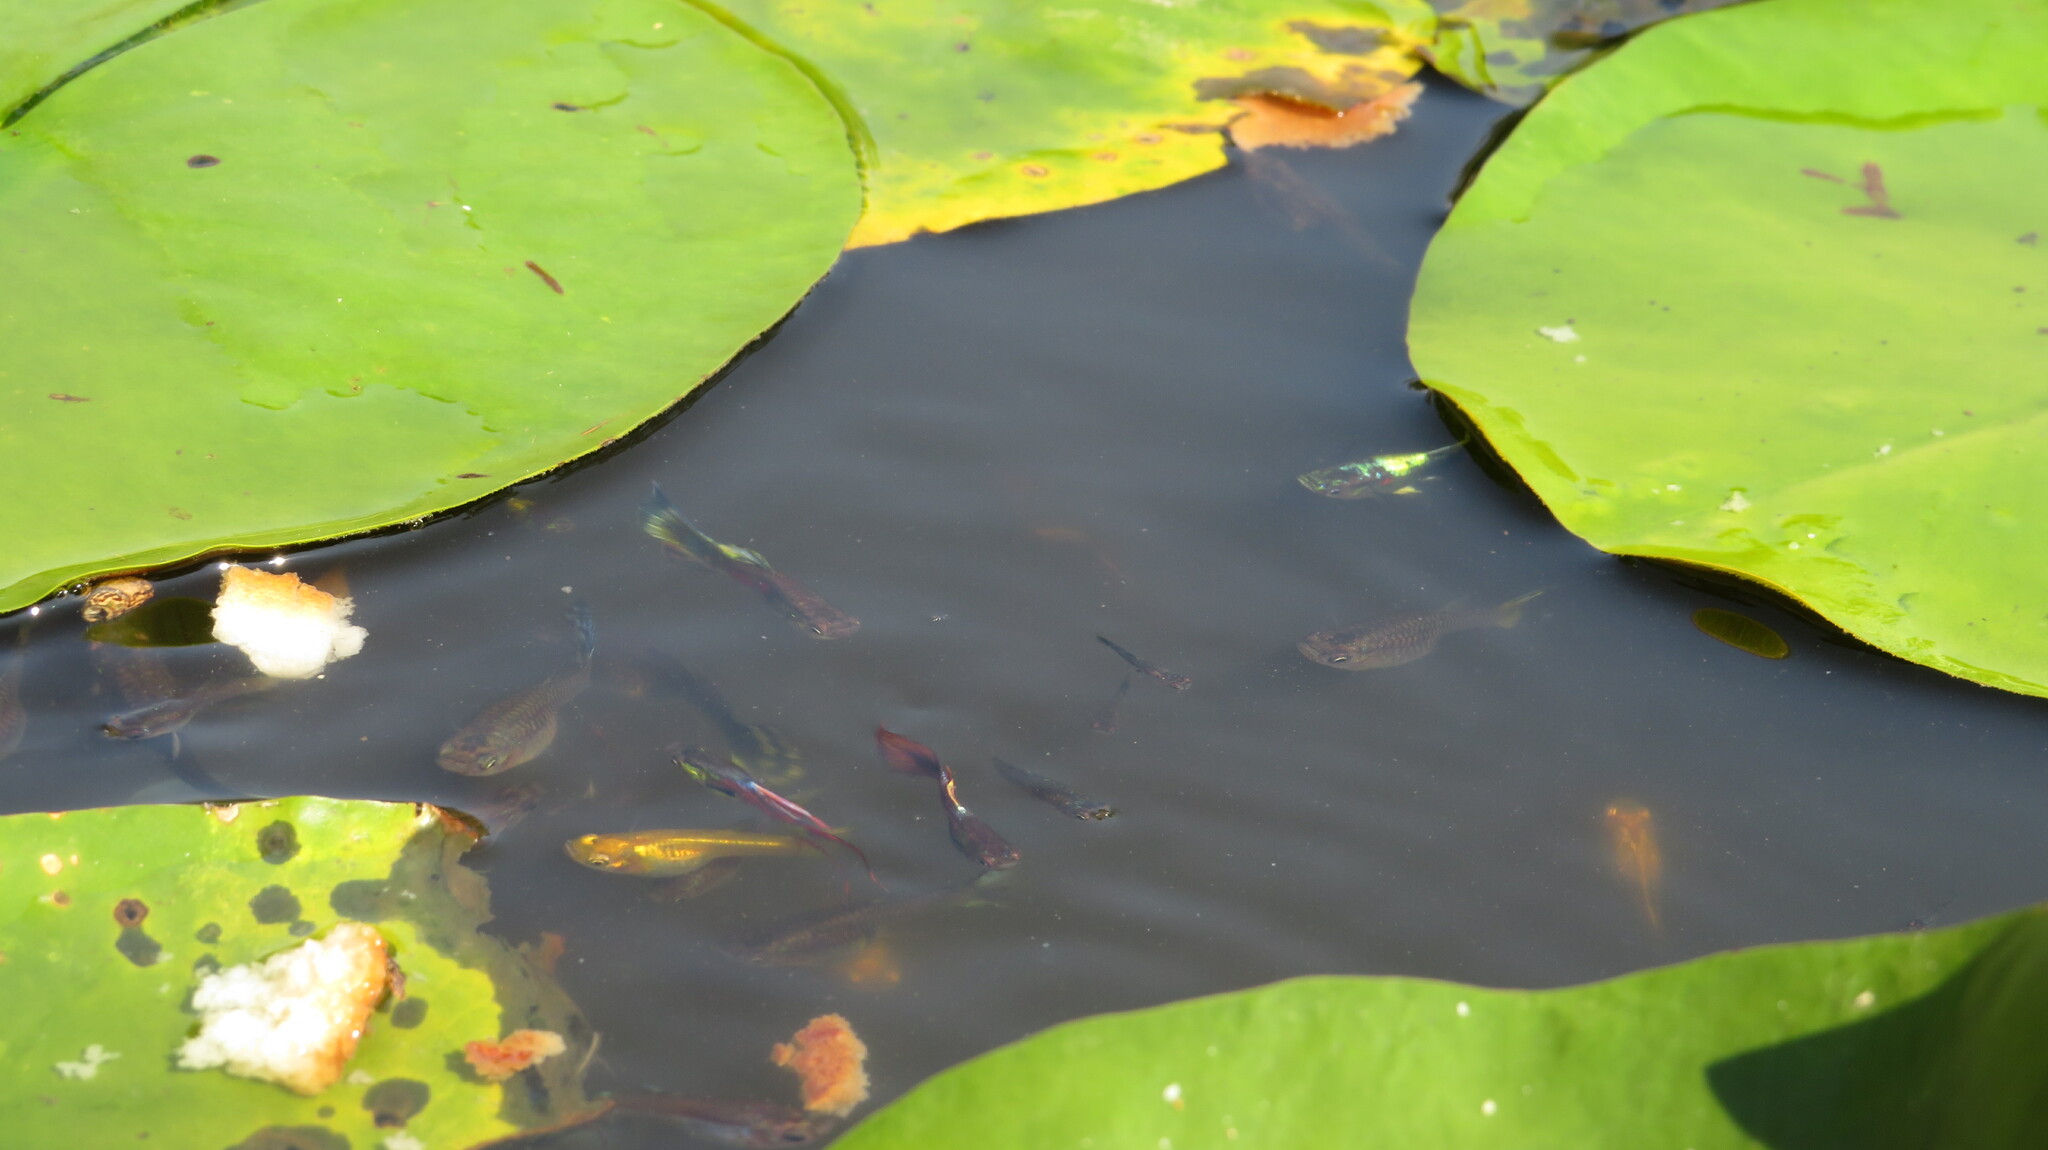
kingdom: Animalia
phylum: Chordata
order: Cyprinodontiformes
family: Poeciliidae
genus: Poecilia
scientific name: Poecilia reticulata
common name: Guppy
